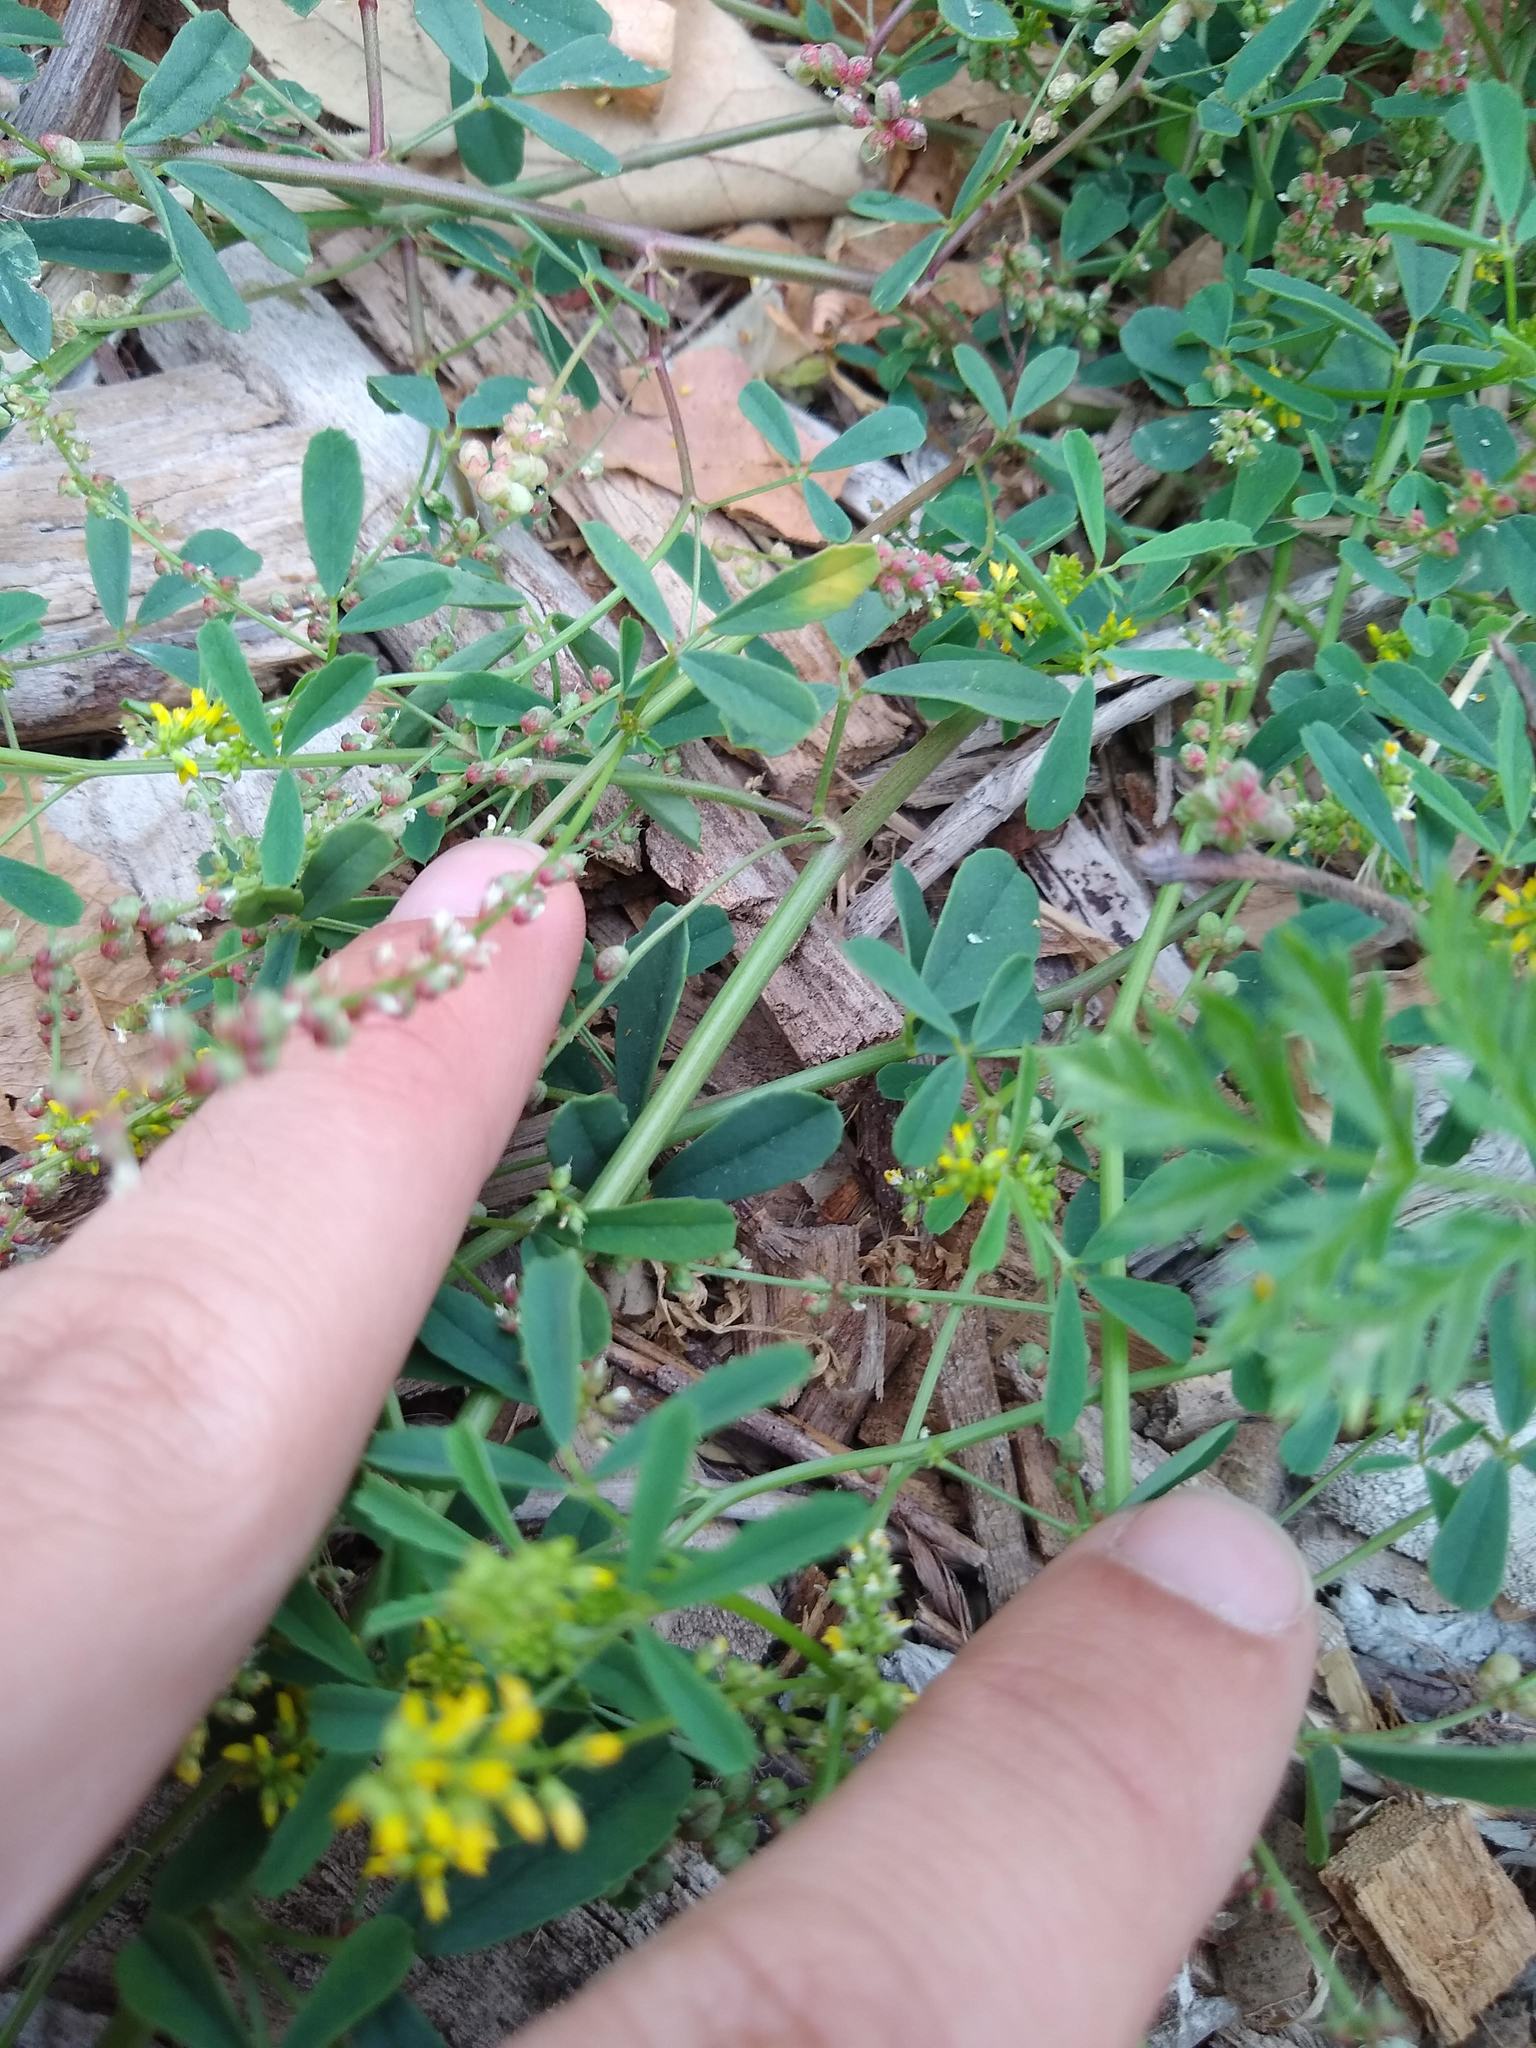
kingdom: Plantae
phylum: Tracheophyta
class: Magnoliopsida
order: Fabales
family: Fabaceae
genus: Melilotus
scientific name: Melilotus indicus
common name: Small melilot
